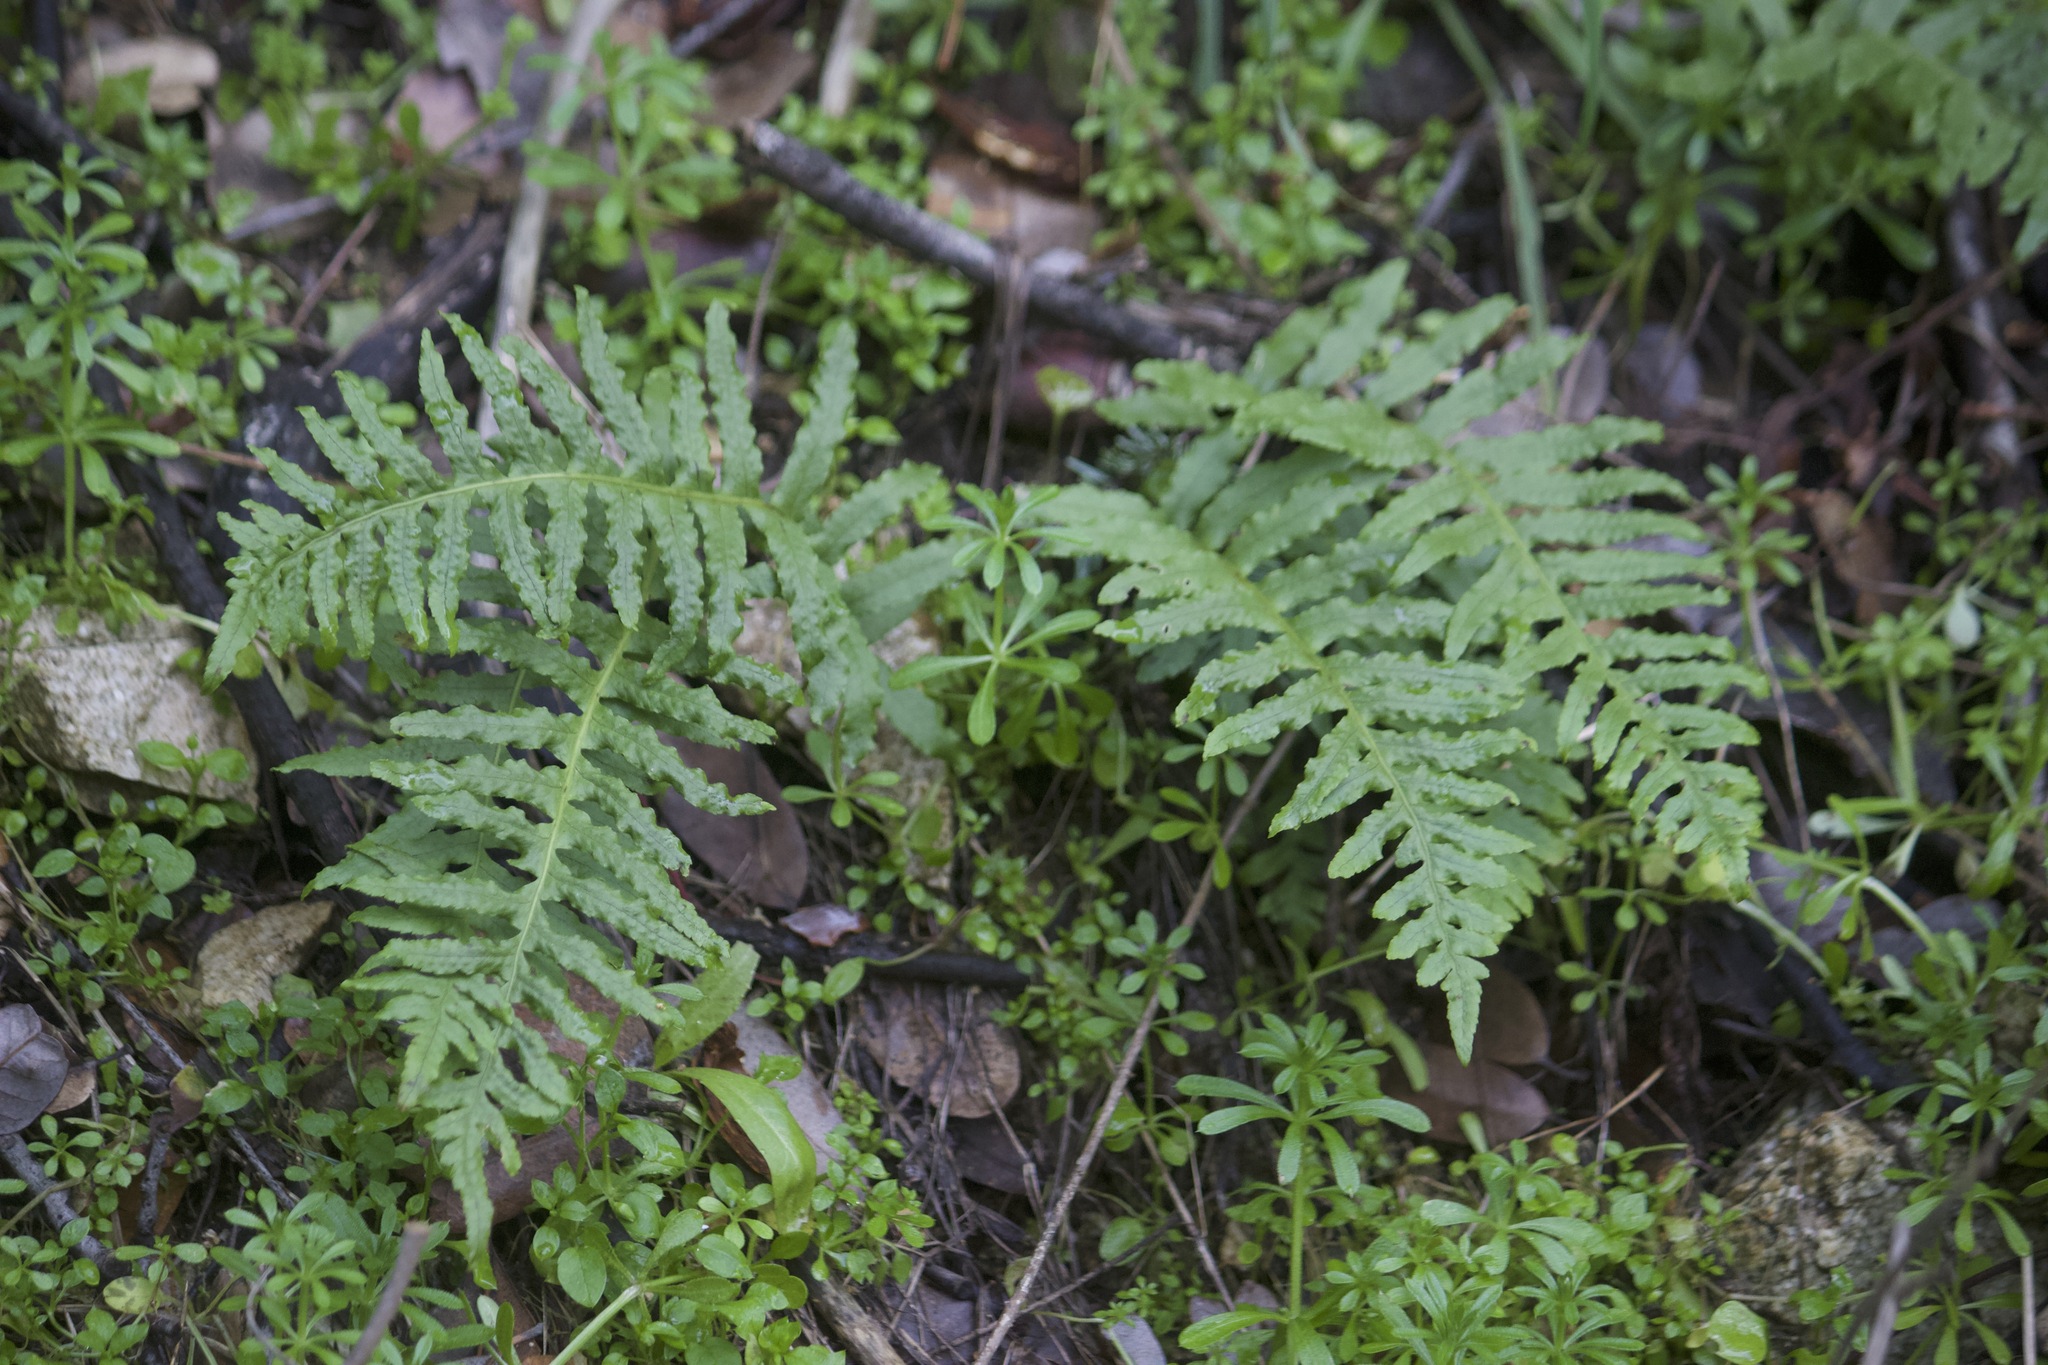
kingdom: Plantae
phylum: Tracheophyta
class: Polypodiopsida
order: Polypodiales
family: Polypodiaceae
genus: Polypodium
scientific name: Polypodium californicum
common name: California polypody
